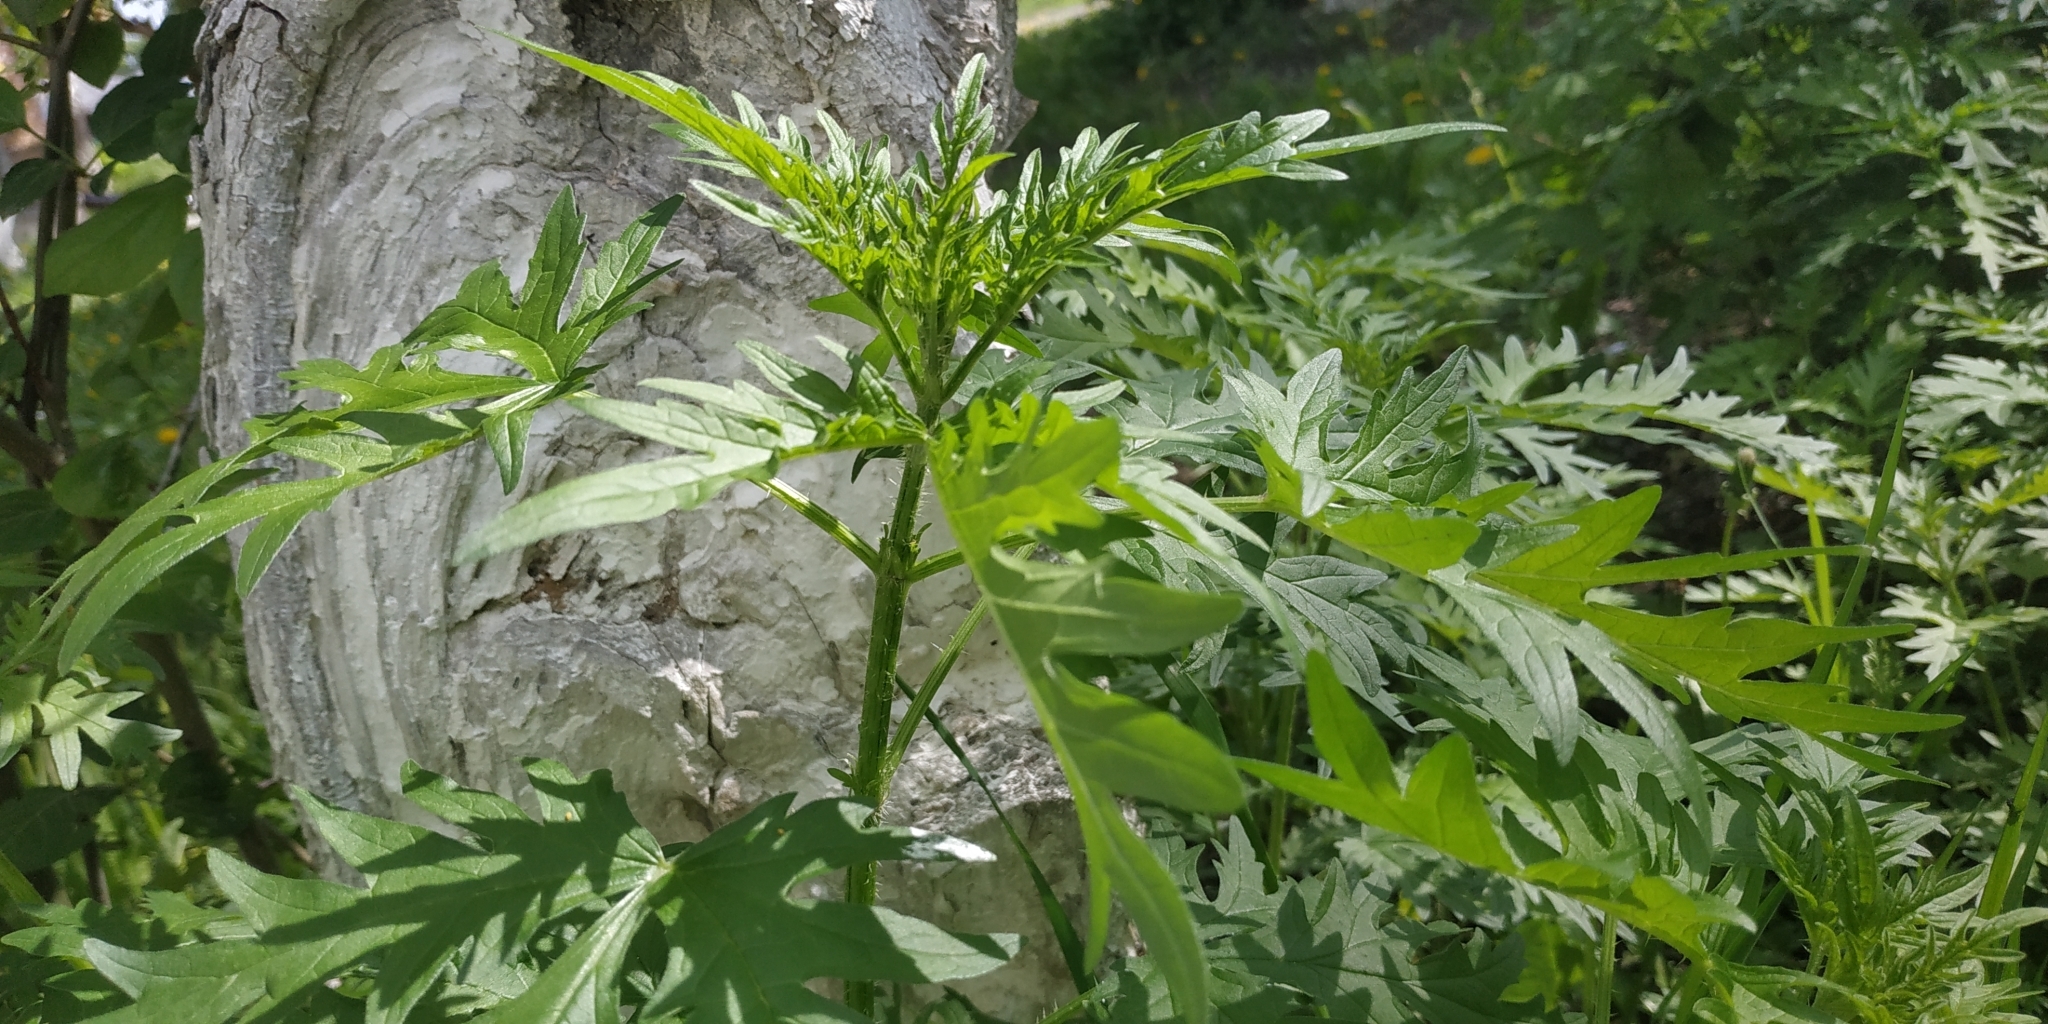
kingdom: Plantae
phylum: Tracheophyta
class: Magnoliopsida
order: Rosales
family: Urticaceae
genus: Urtica
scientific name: Urtica cannabina
